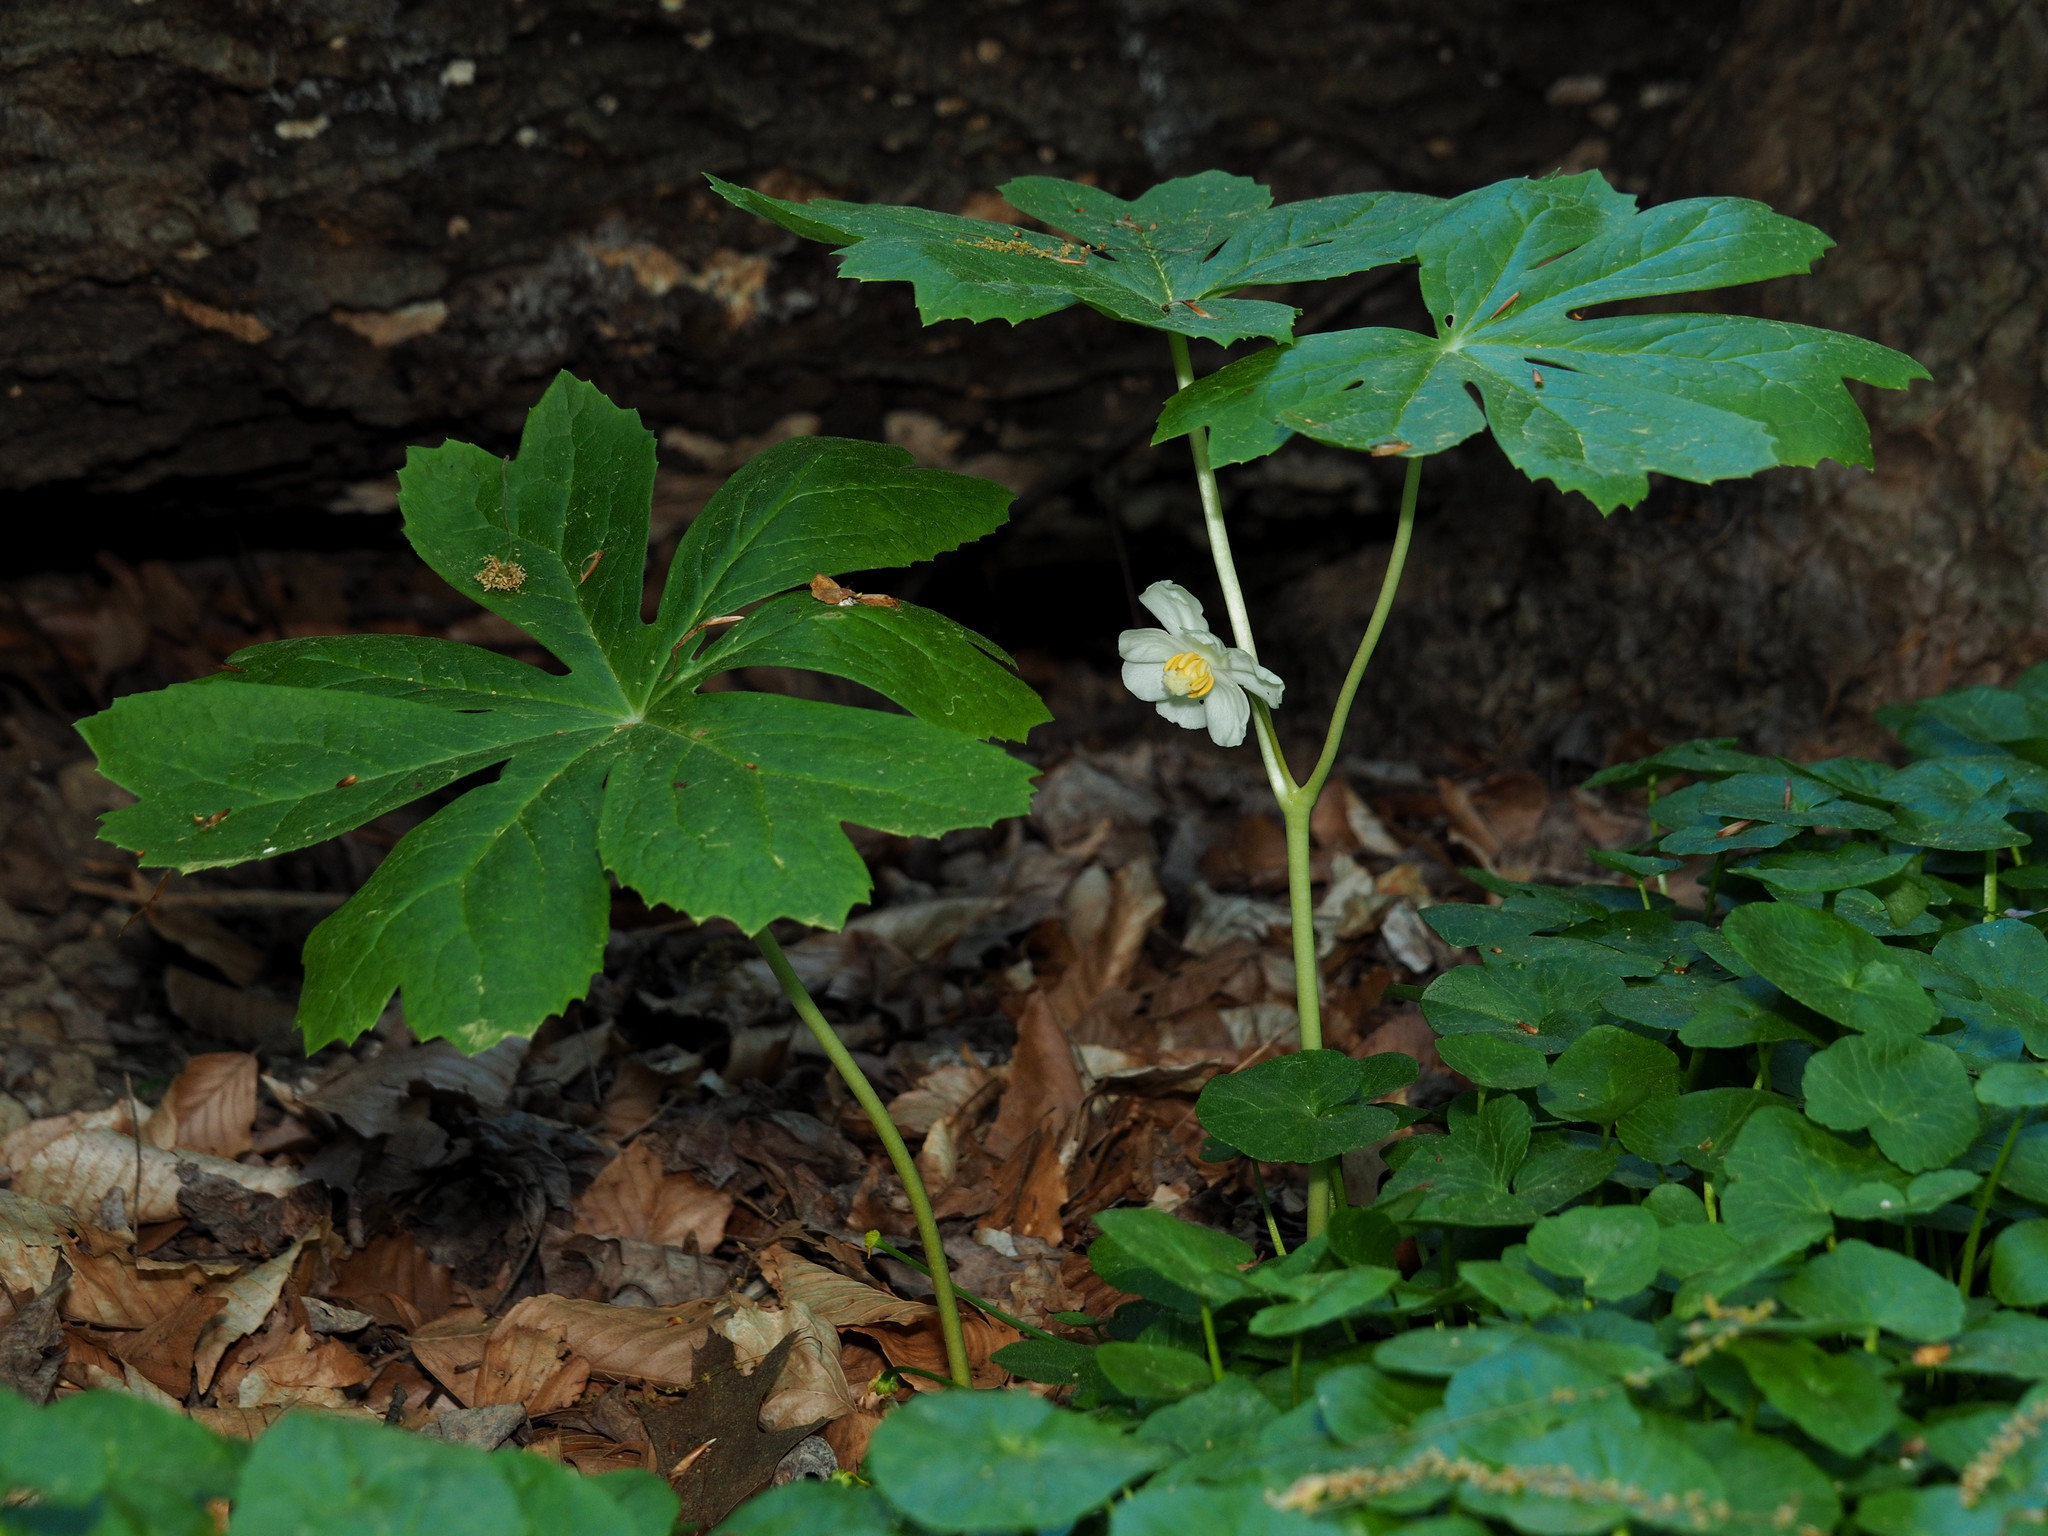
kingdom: Plantae
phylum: Tracheophyta
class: Magnoliopsida
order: Ranunculales
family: Berberidaceae
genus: Podophyllum
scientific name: Podophyllum peltatum
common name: Wild mandrake
